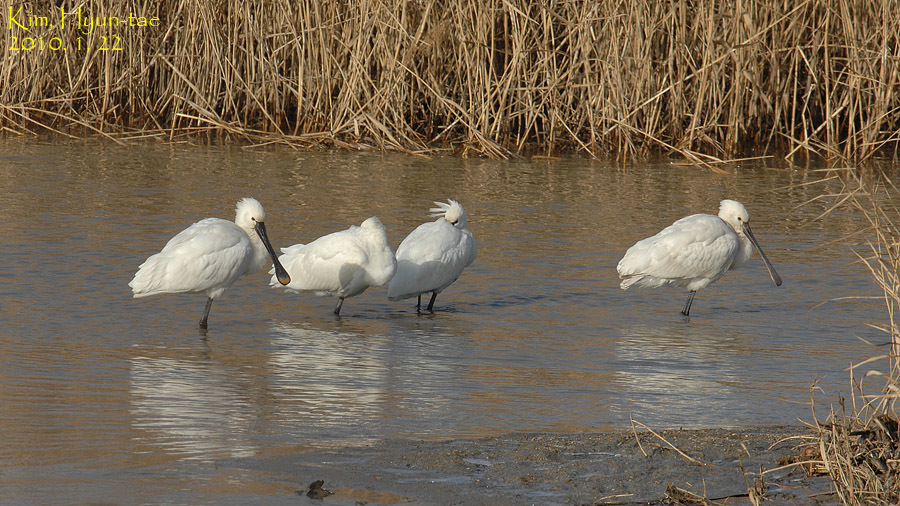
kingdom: Animalia
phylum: Chordata
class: Aves
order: Pelecaniformes
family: Threskiornithidae
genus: Platalea
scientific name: Platalea leucorodia
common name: Eurasian spoonbill
